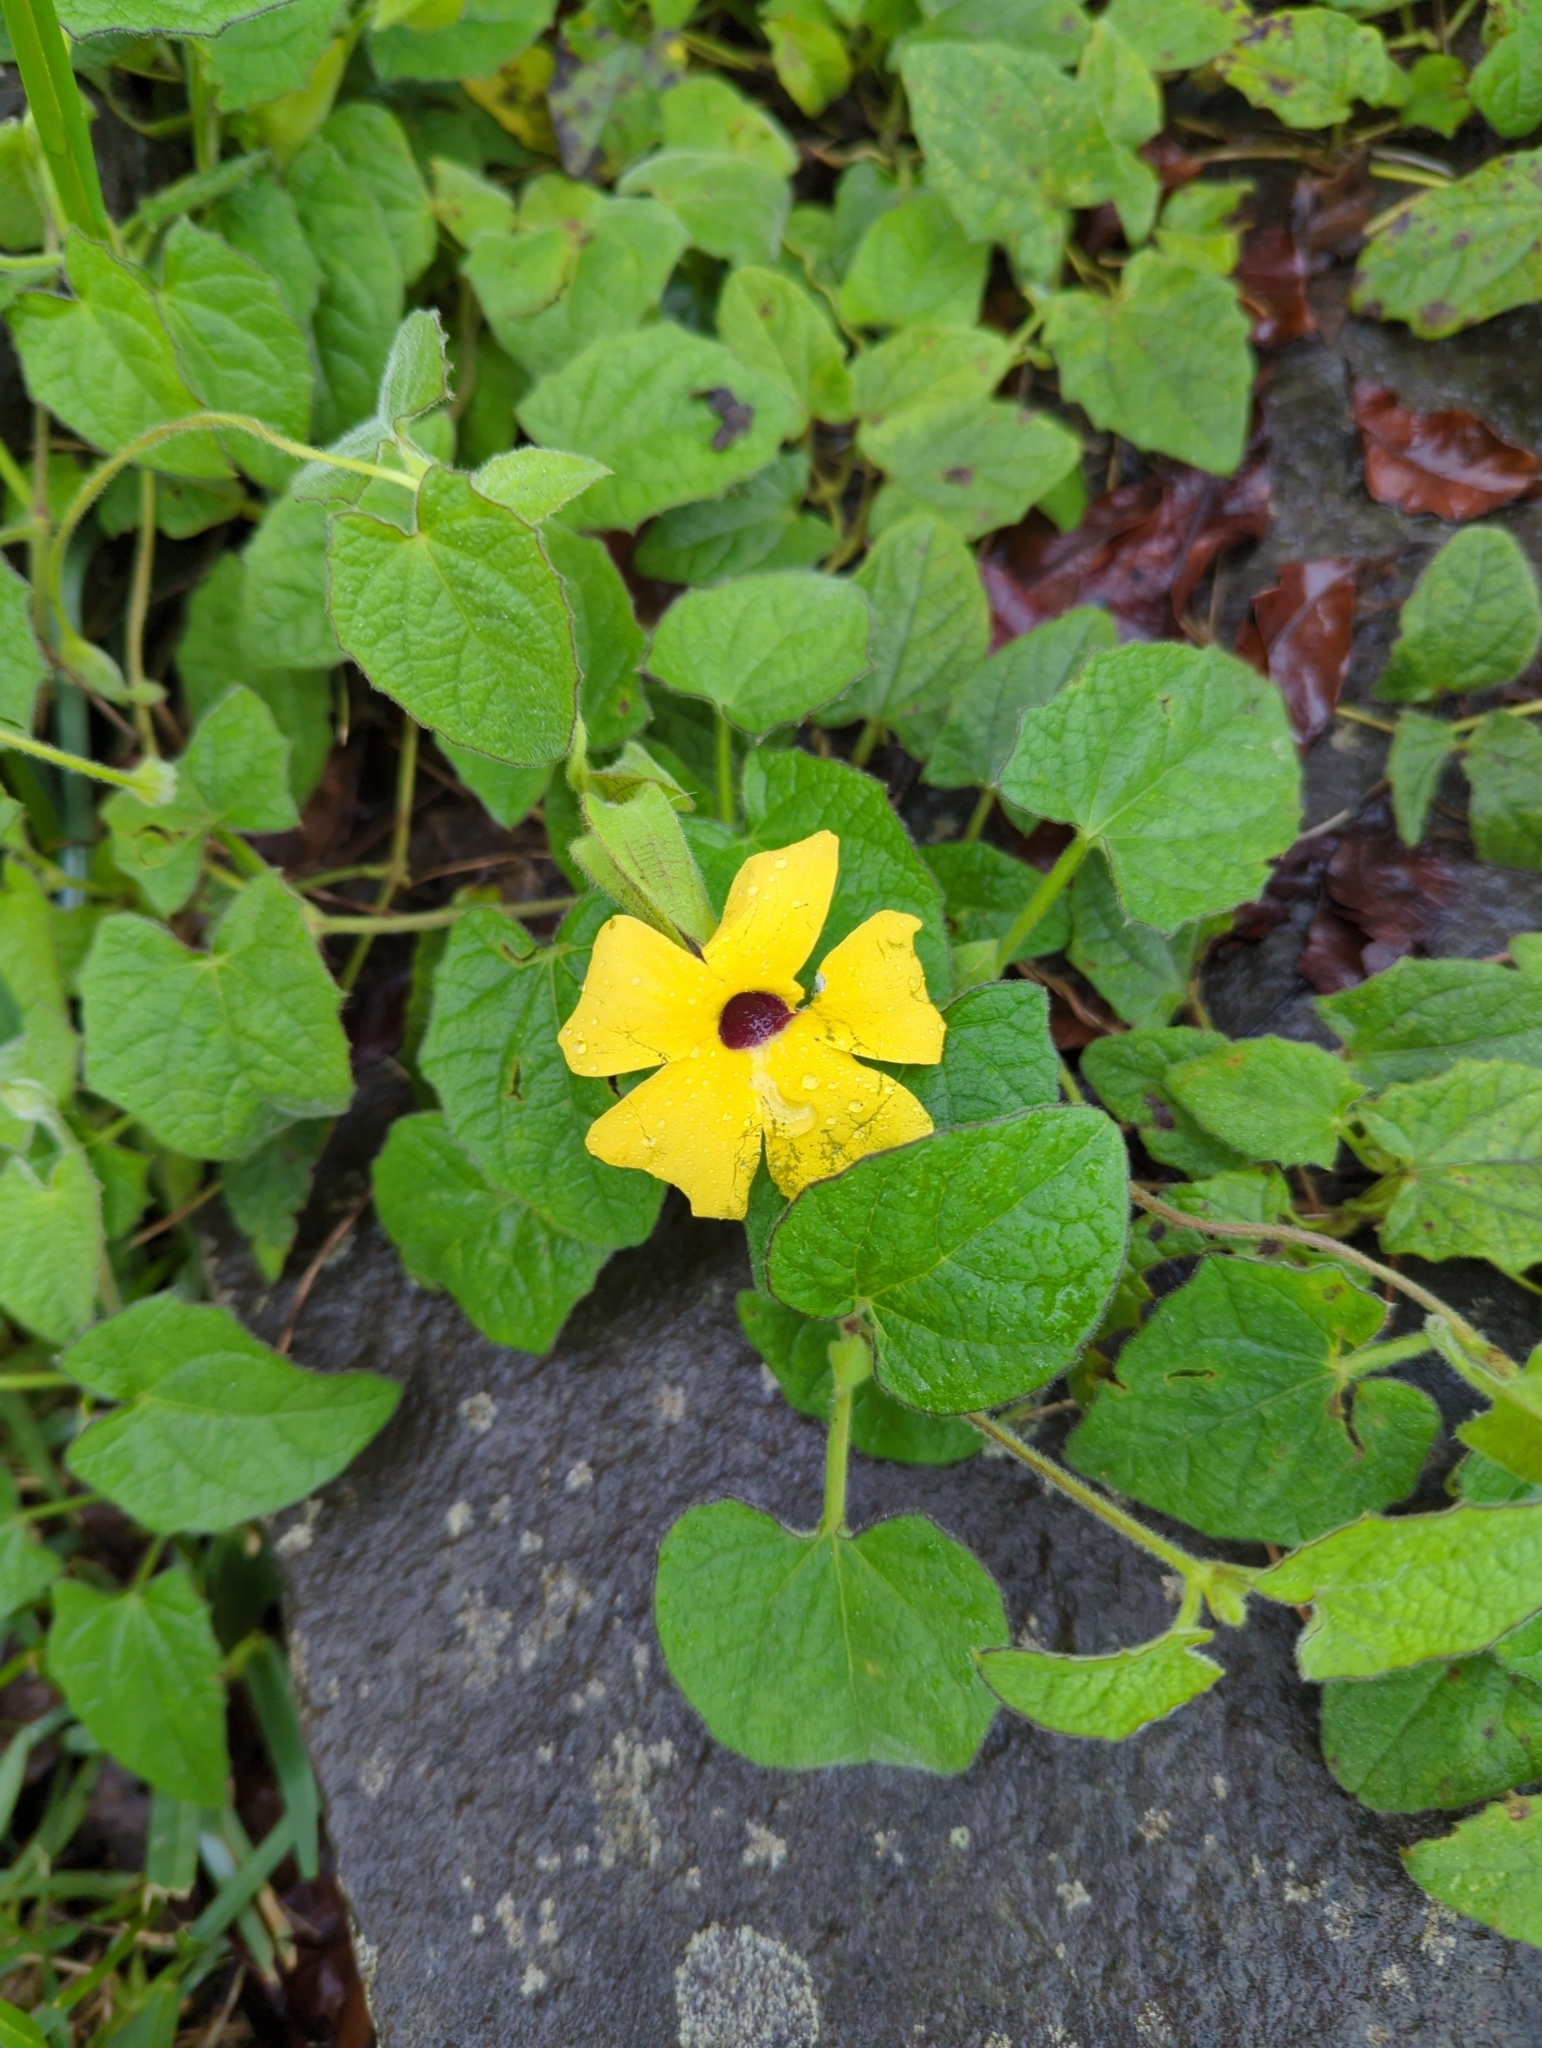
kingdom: Plantae
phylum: Tracheophyta
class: Magnoliopsida
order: Lamiales
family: Acanthaceae
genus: Thunbergia
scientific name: Thunbergia alata
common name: Blackeyed susan vine
